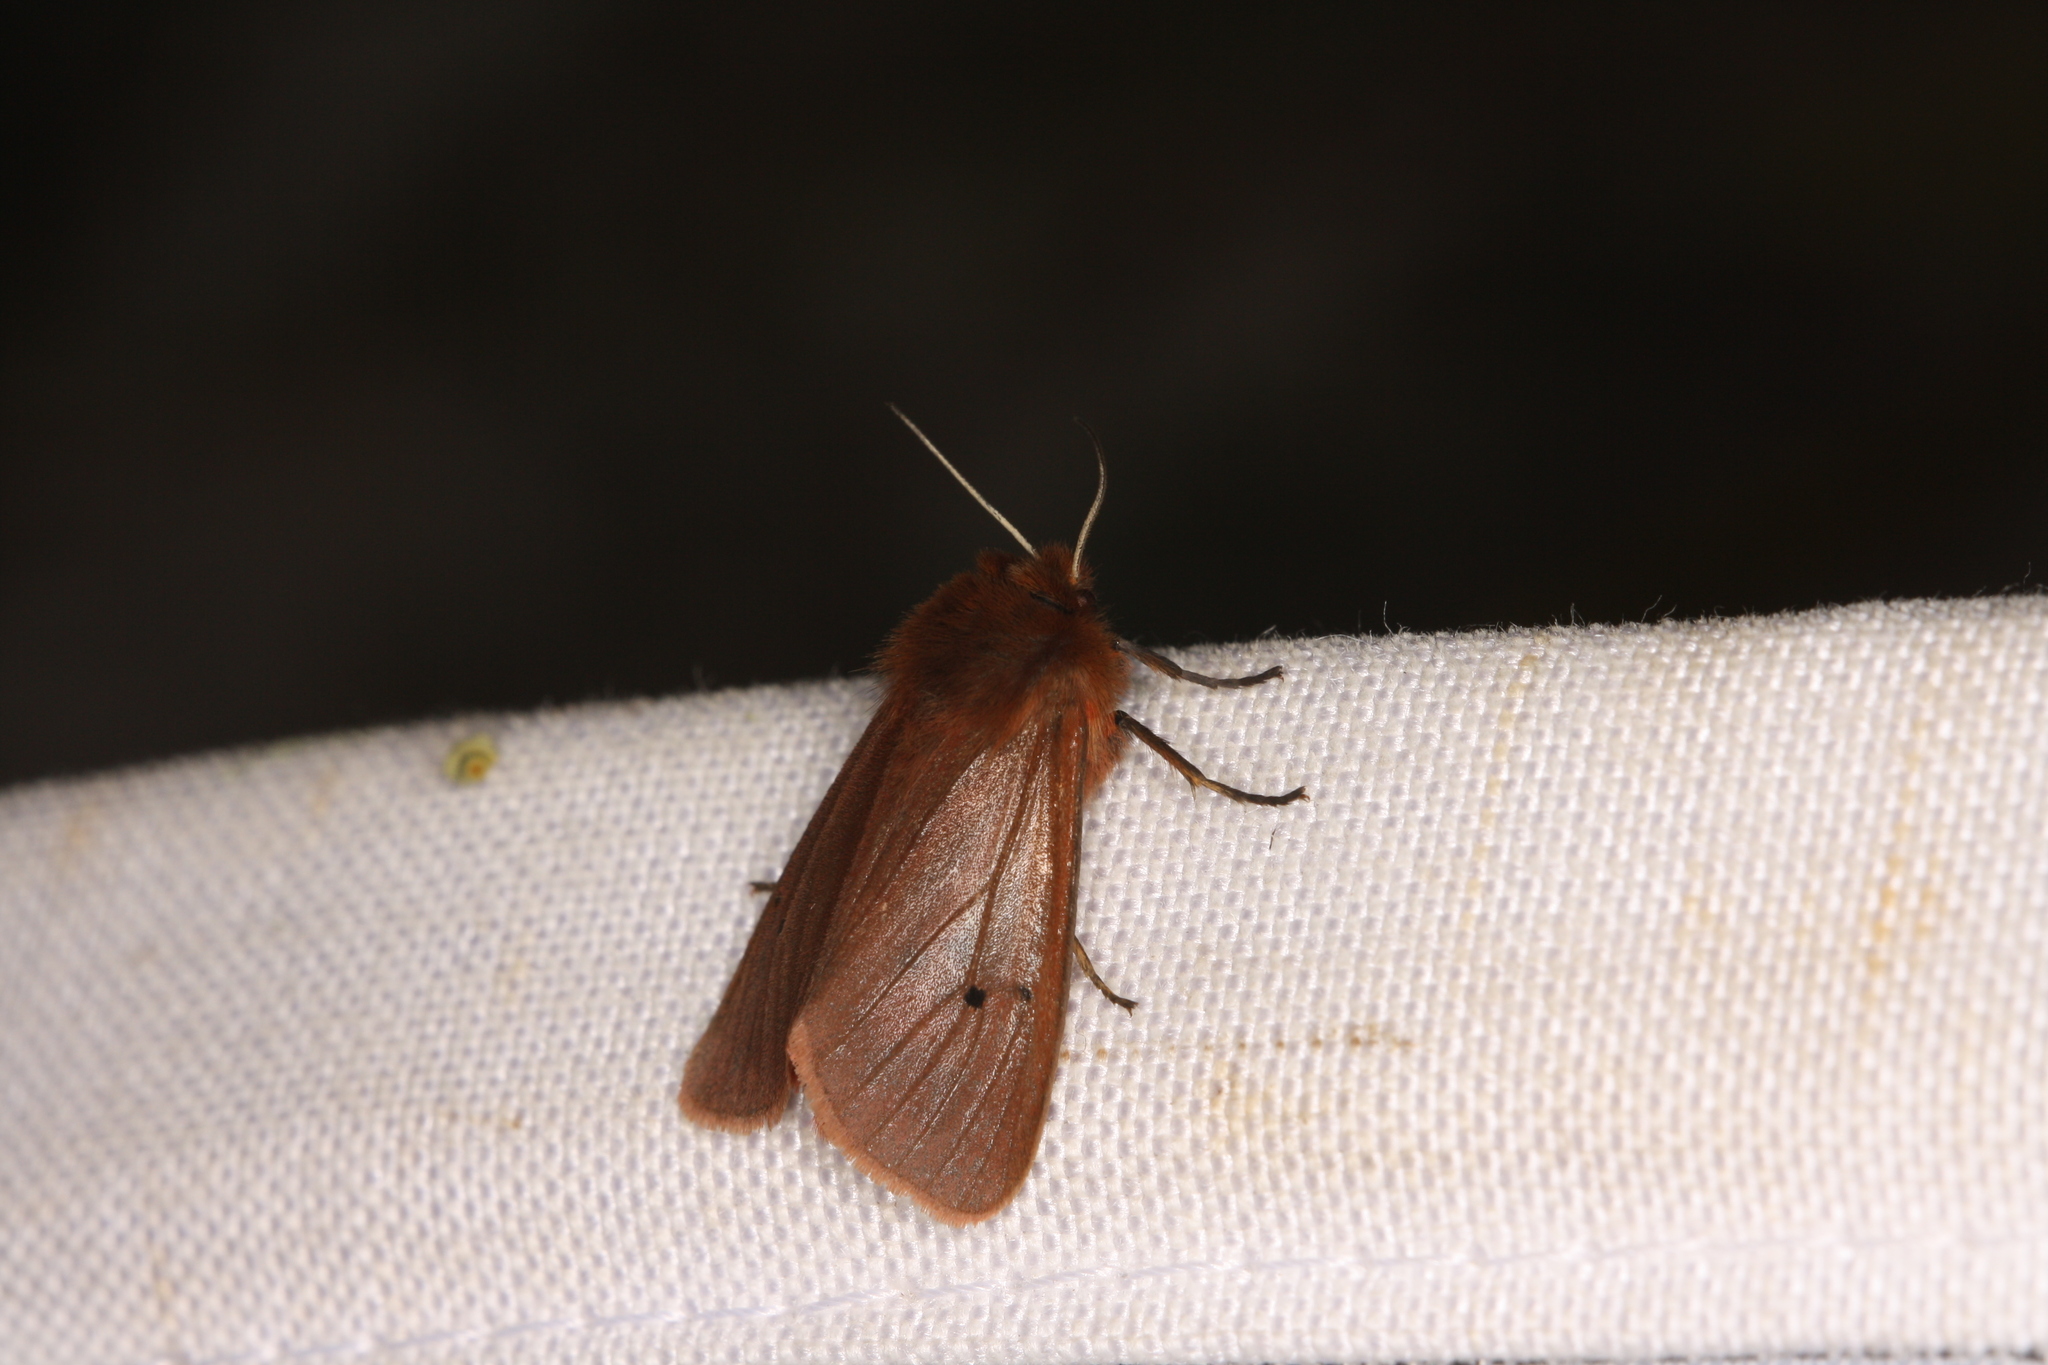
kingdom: Animalia
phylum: Arthropoda
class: Insecta
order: Lepidoptera
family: Erebidae
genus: Phragmatobia
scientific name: Phragmatobia fuliginosa
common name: Ruby tiger
